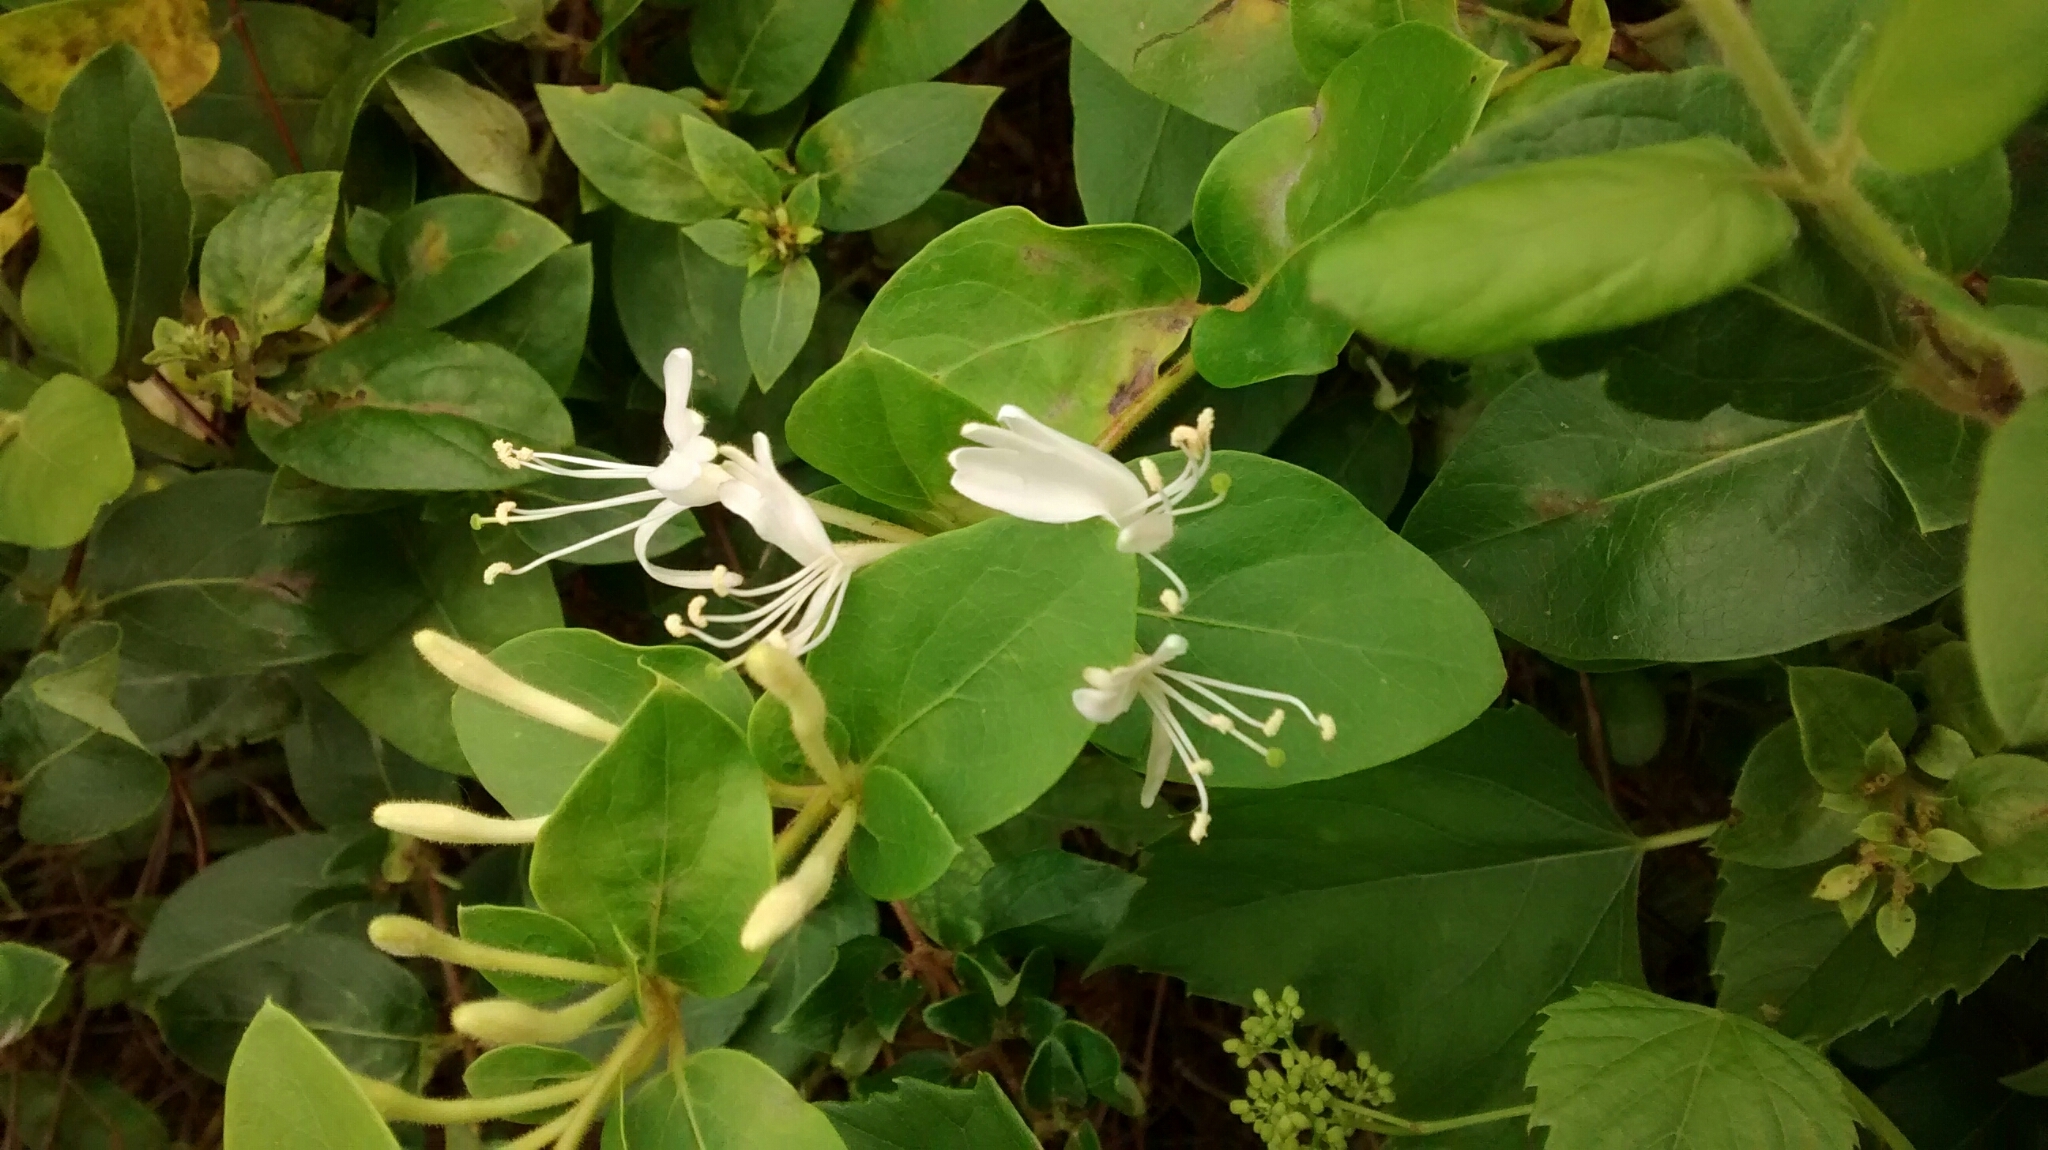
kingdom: Plantae
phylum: Tracheophyta
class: Magnoliopsida
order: Dipsacales
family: Caprifoliaceae
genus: Lonicera
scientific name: Lonicera japonica
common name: Japanese honeysuckle
